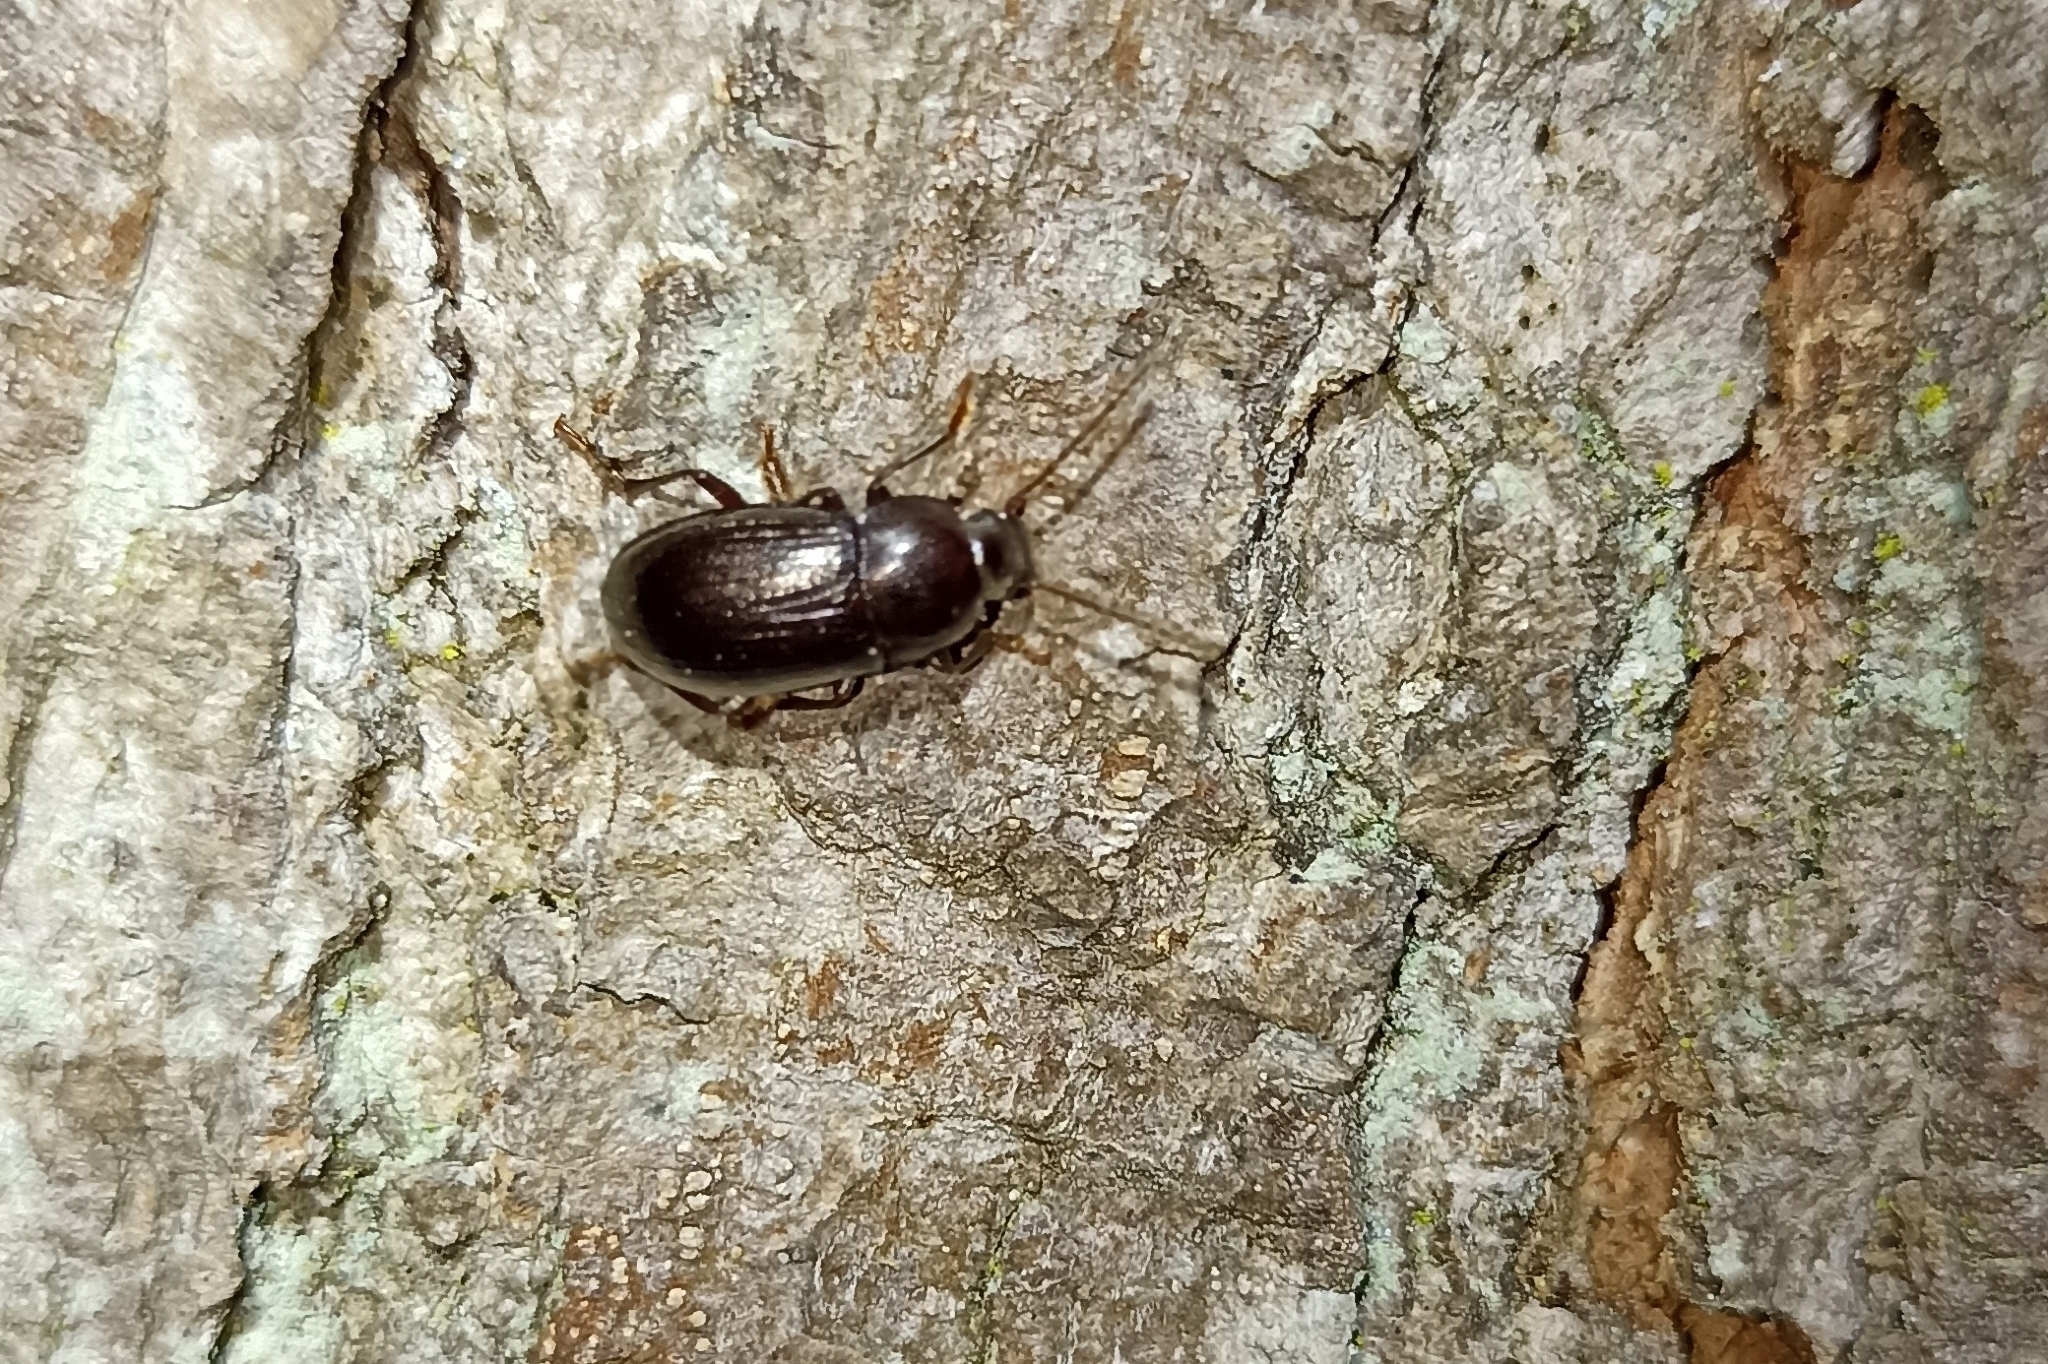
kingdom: Animalia
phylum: Arthropoda
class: Insecta
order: Coleoptera
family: Tenebrionidae
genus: Nalassus
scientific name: Nalassus laevioctostriatus
